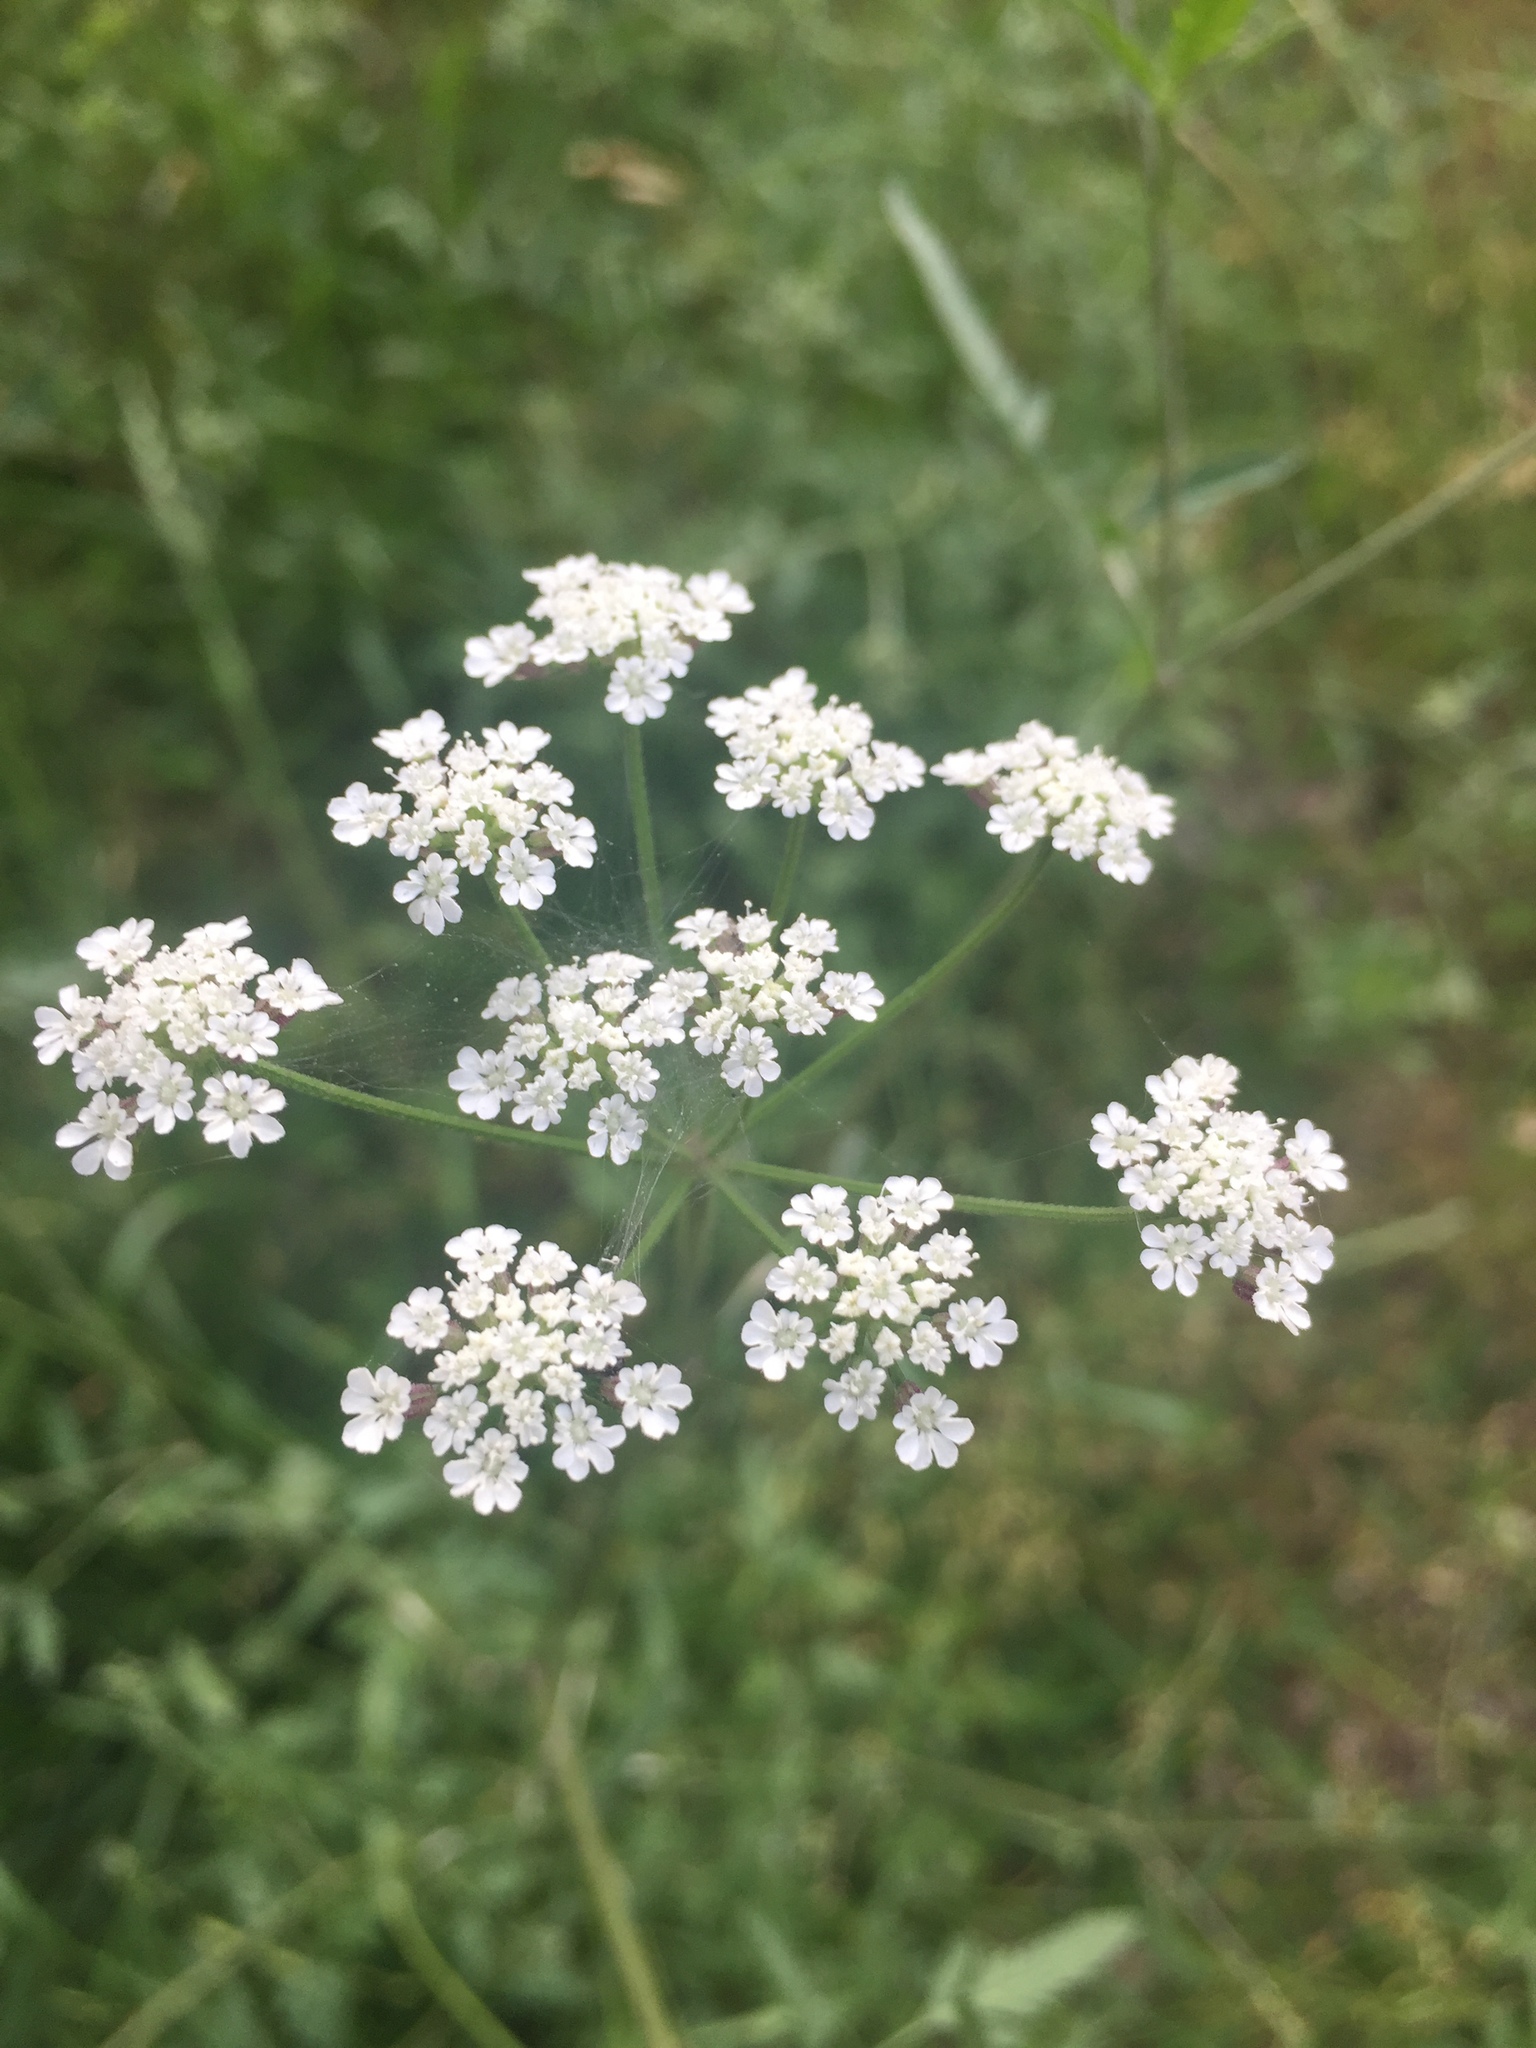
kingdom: Plantae
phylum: Tracheophyta
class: Magnoliopsida
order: Apiales
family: Apiaceae
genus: Torilis
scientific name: Torilis arvensis
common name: Spreading hedge-parsley
